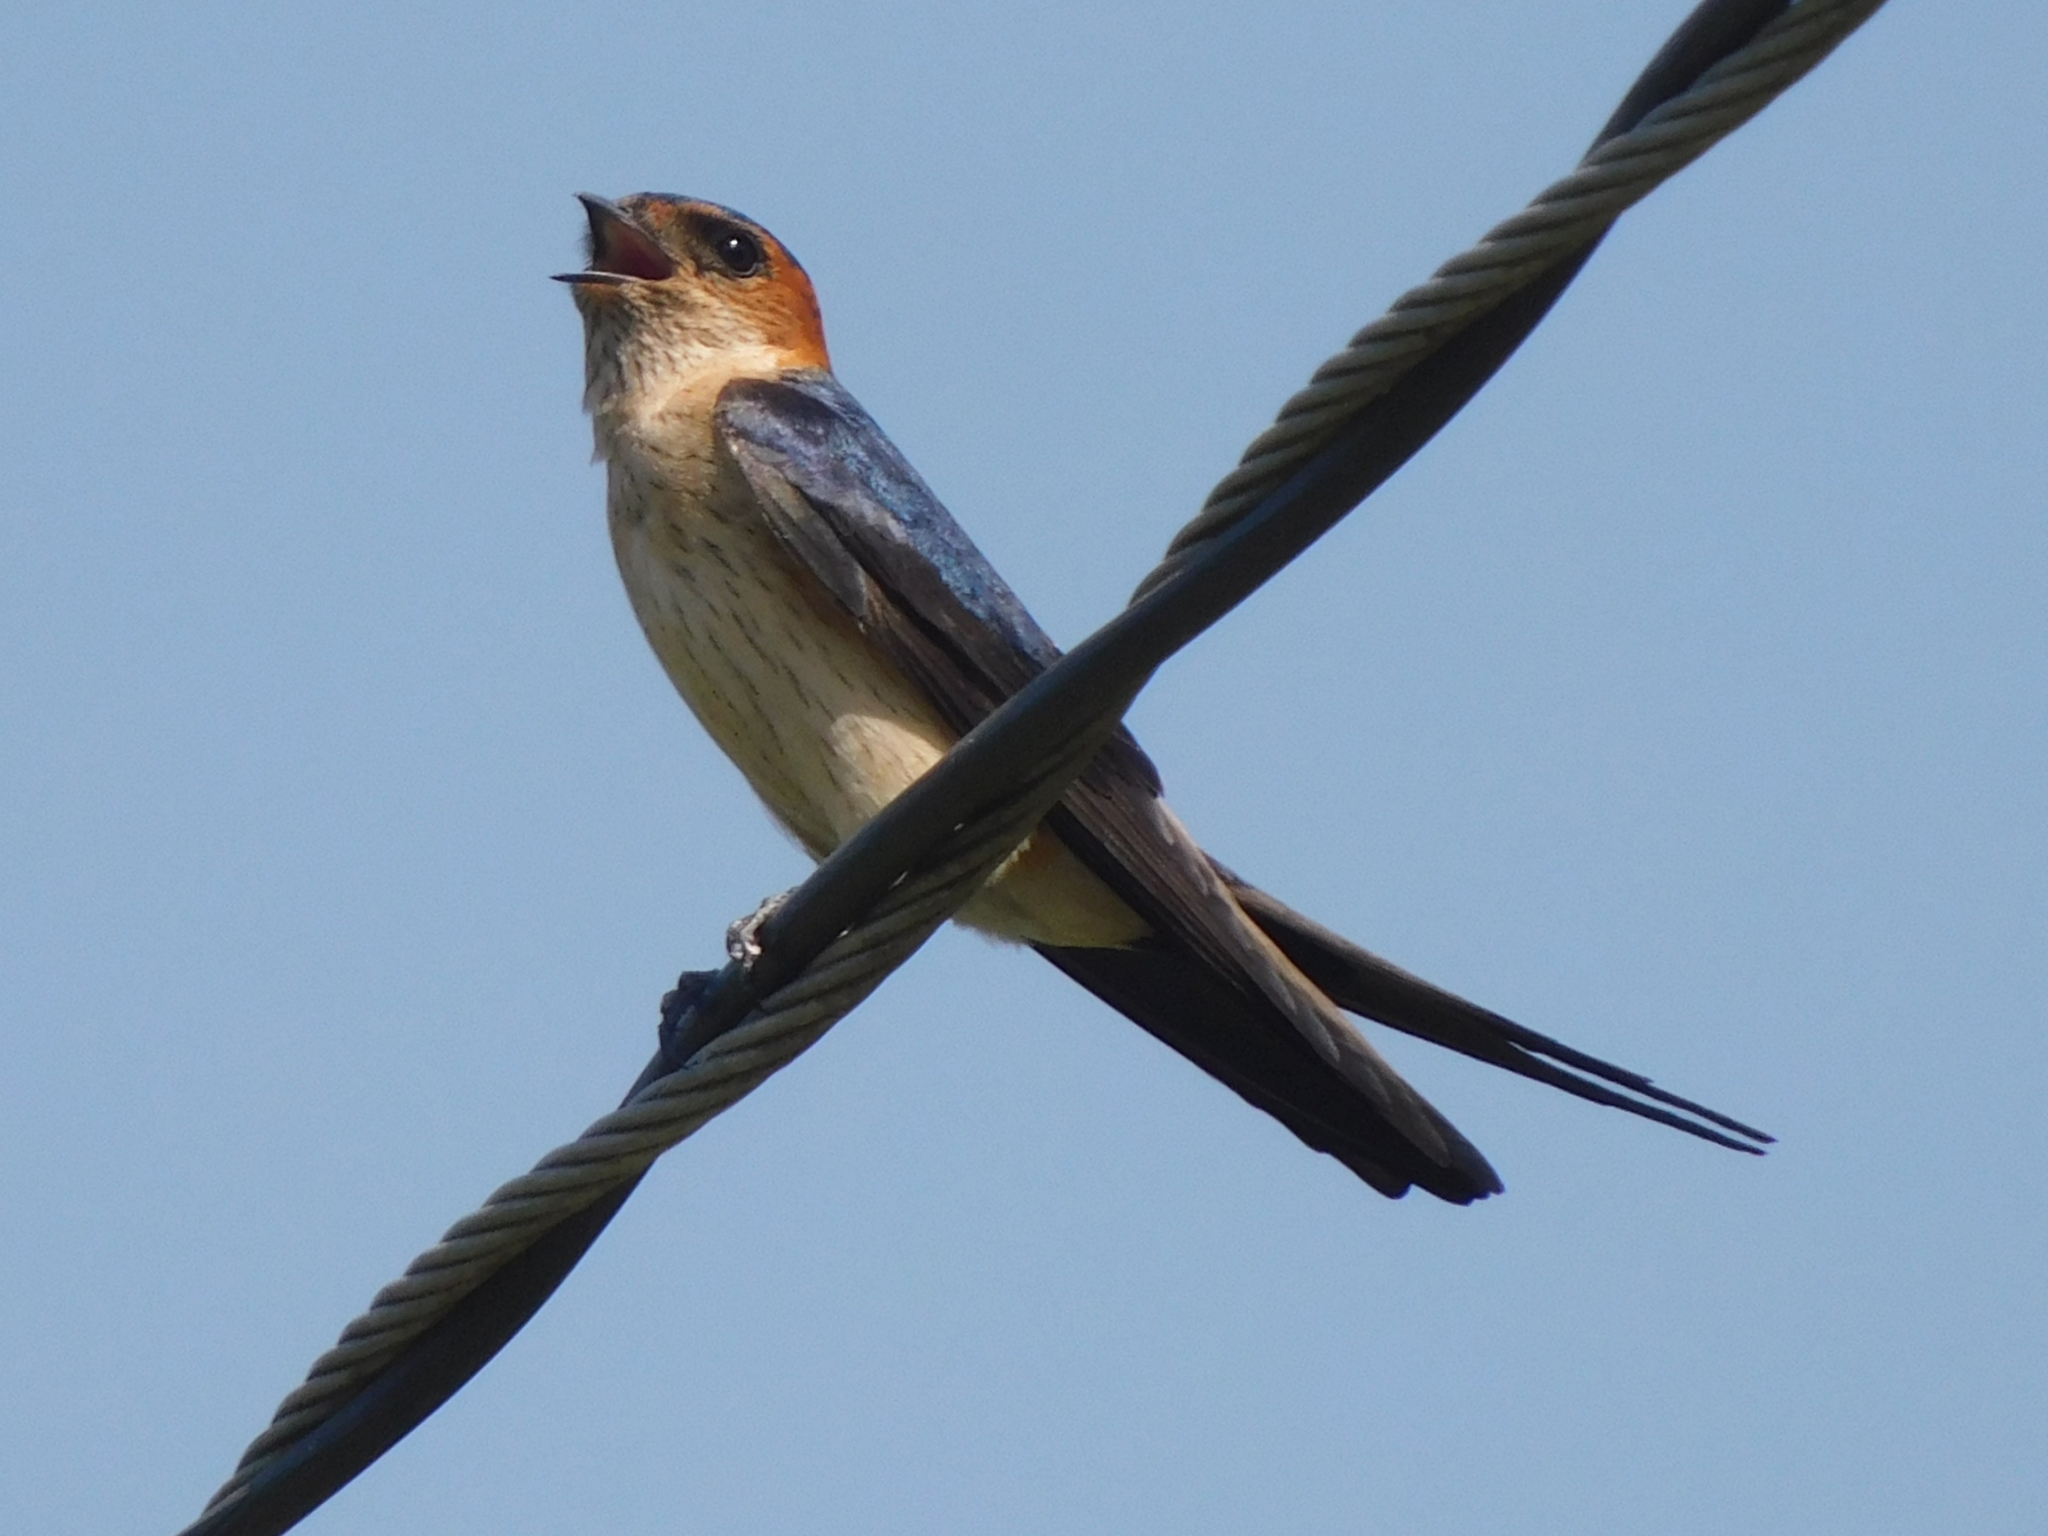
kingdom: Animalia
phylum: Chordata
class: Aves
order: Passeriformes
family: Hirundinidae
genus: Cecropis
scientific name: Cecropis daurica
